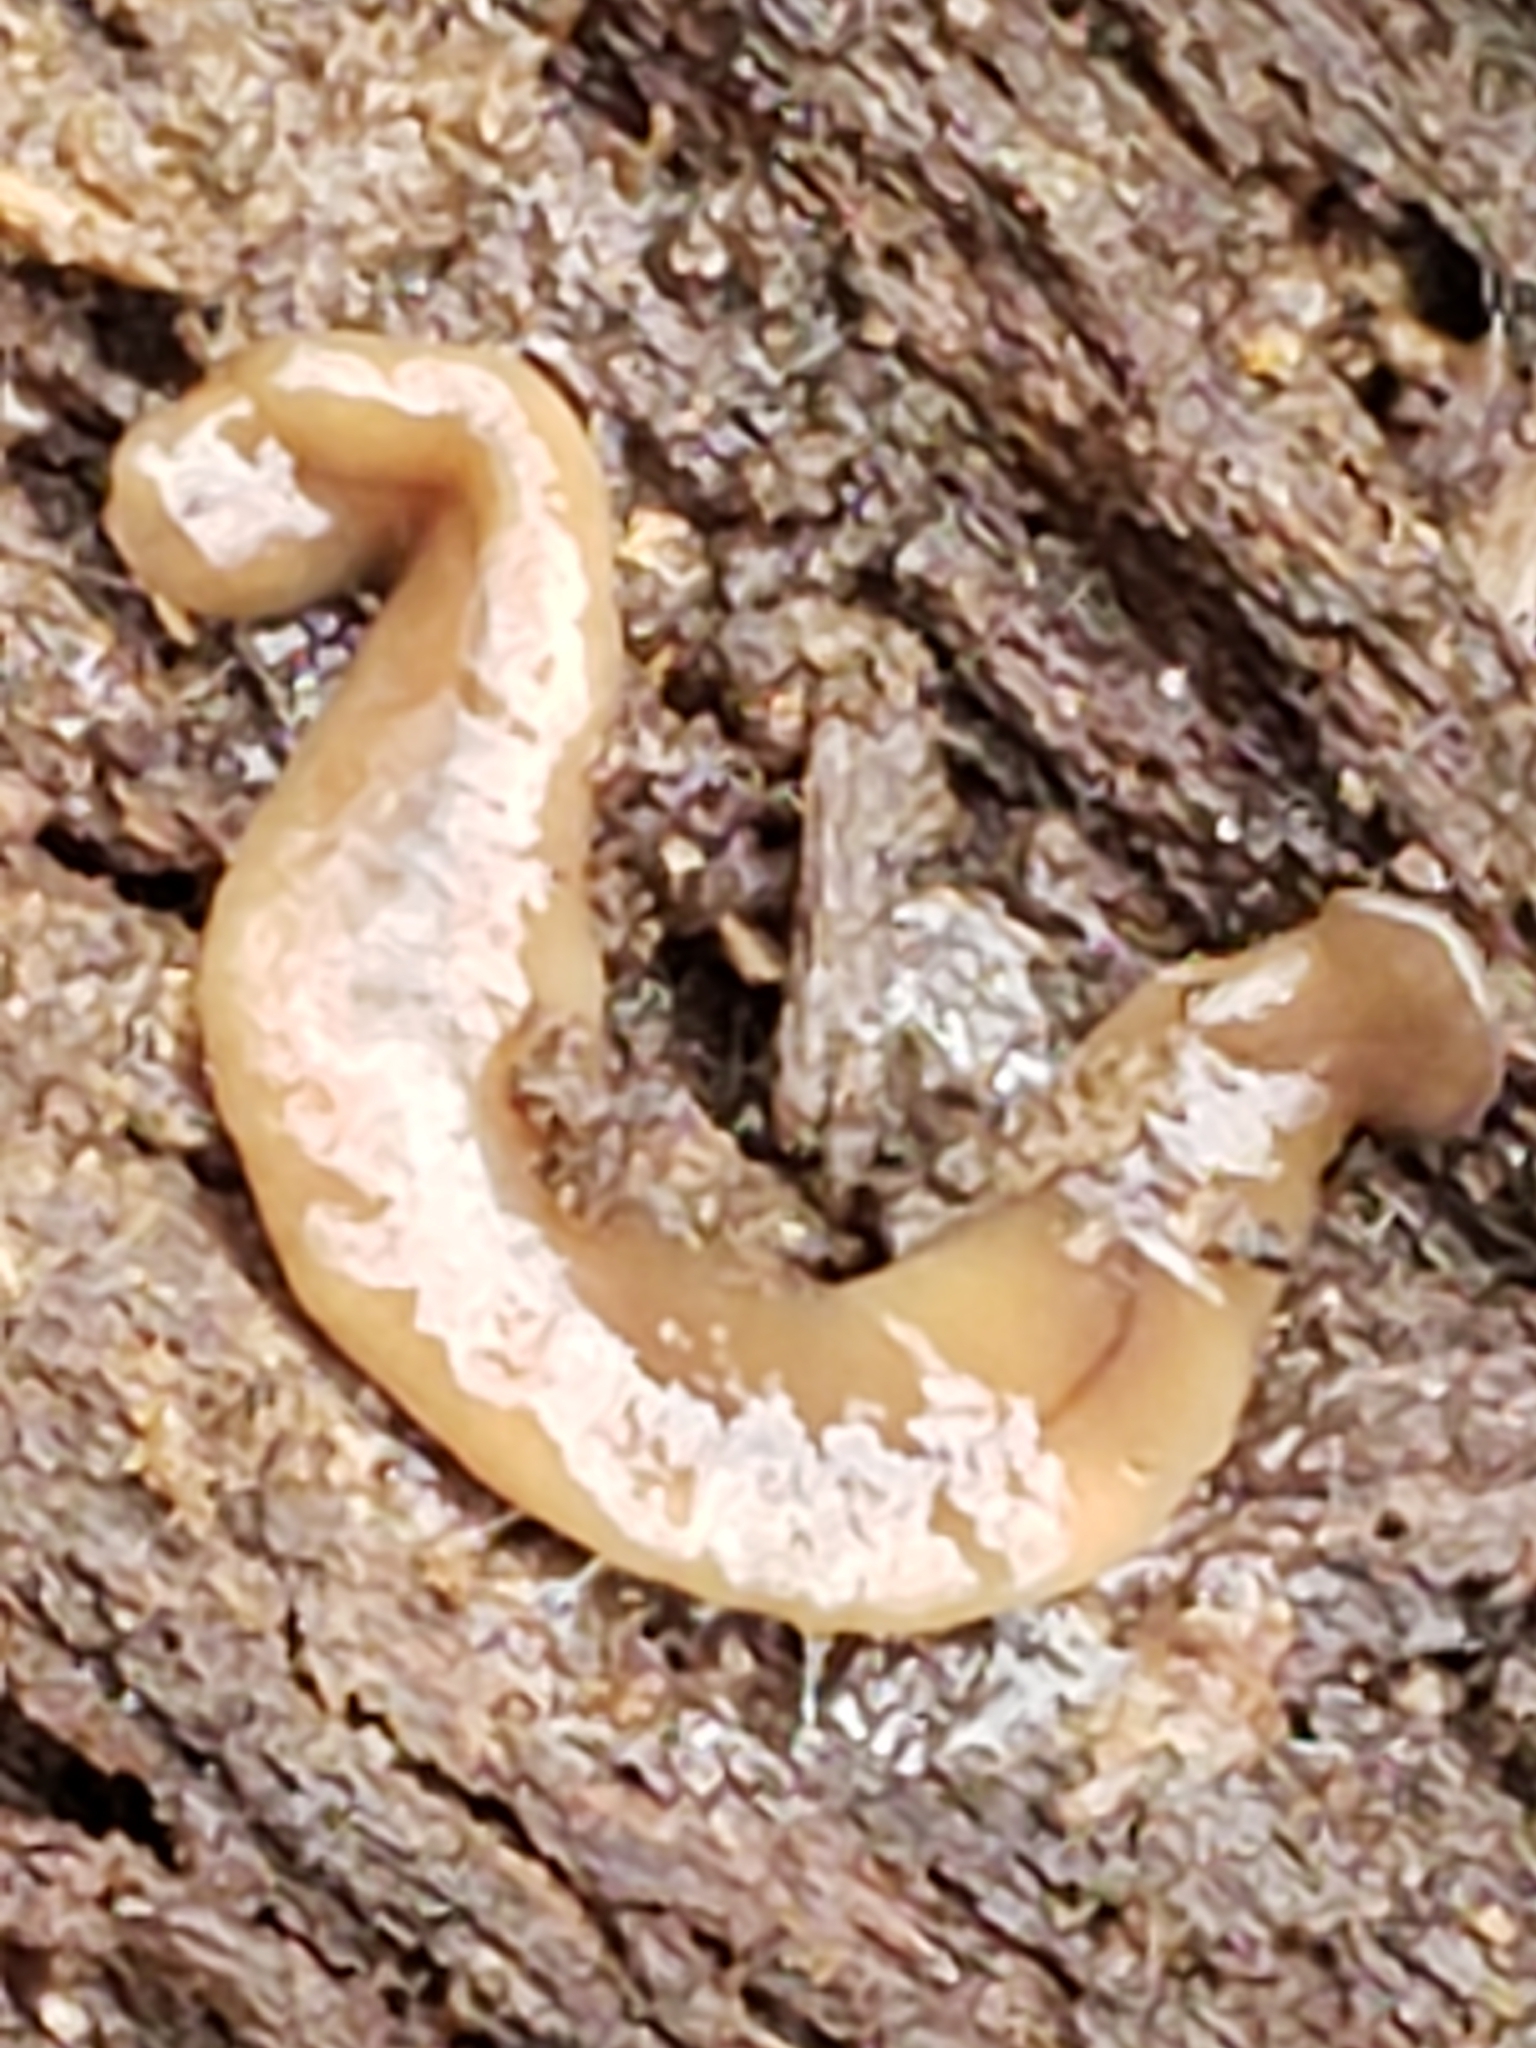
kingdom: Animalia
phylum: Platyhelminthes
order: Tricladida
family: Geoplanidae
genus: Bipalium
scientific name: Bipalium adventitium
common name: Land planarian
